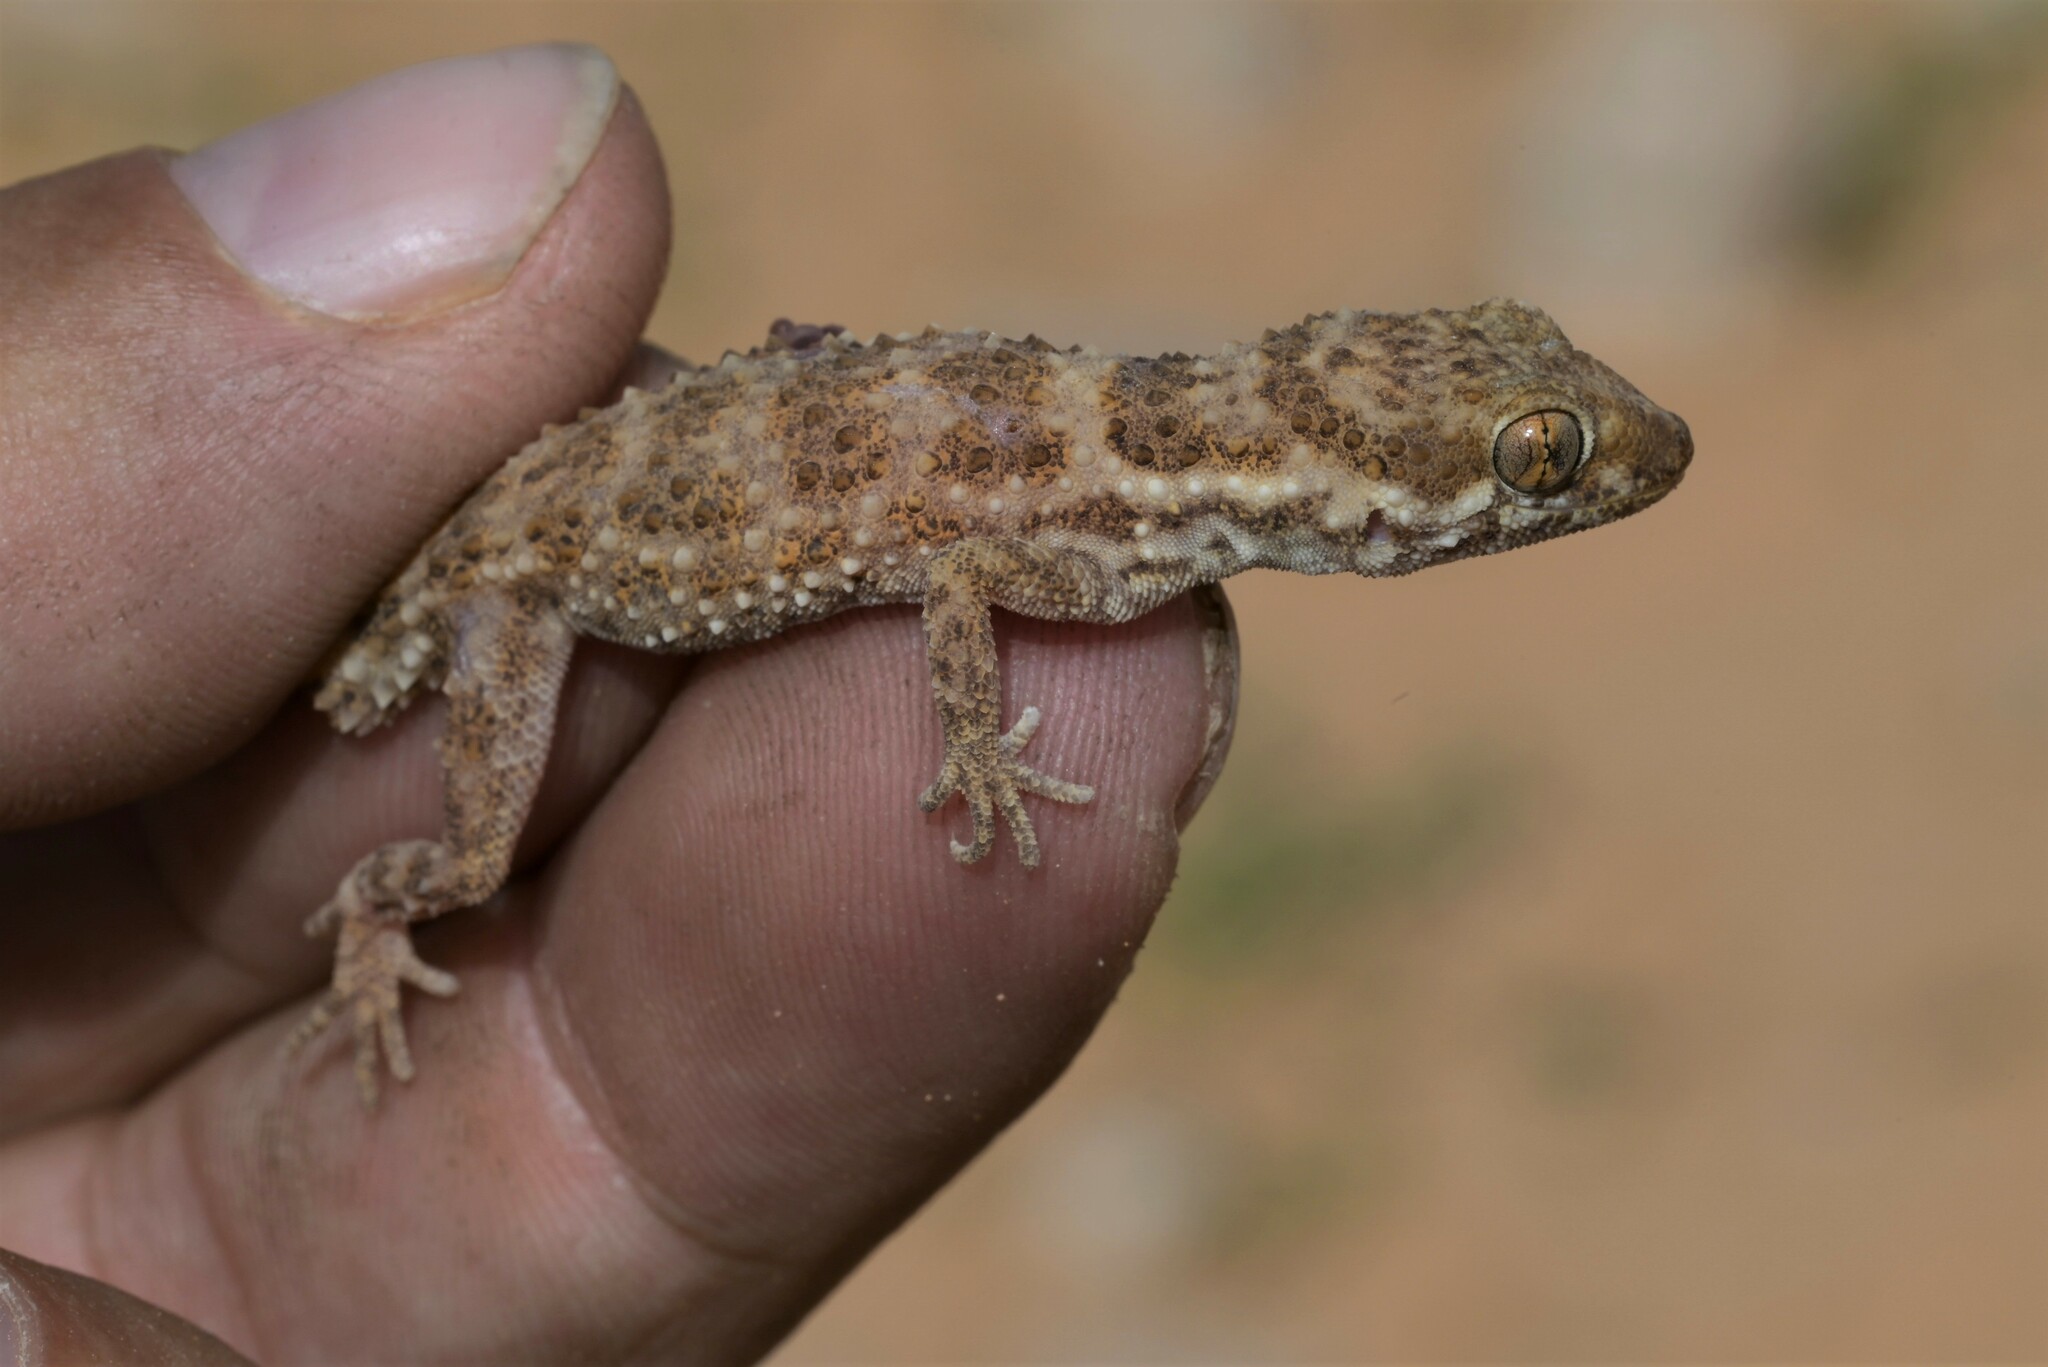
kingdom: Animalia
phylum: Chordata
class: Squamata
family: Gekkonidae
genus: Bunopus
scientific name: Bunopus tuberculatus
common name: Southern tuberculated gecko
